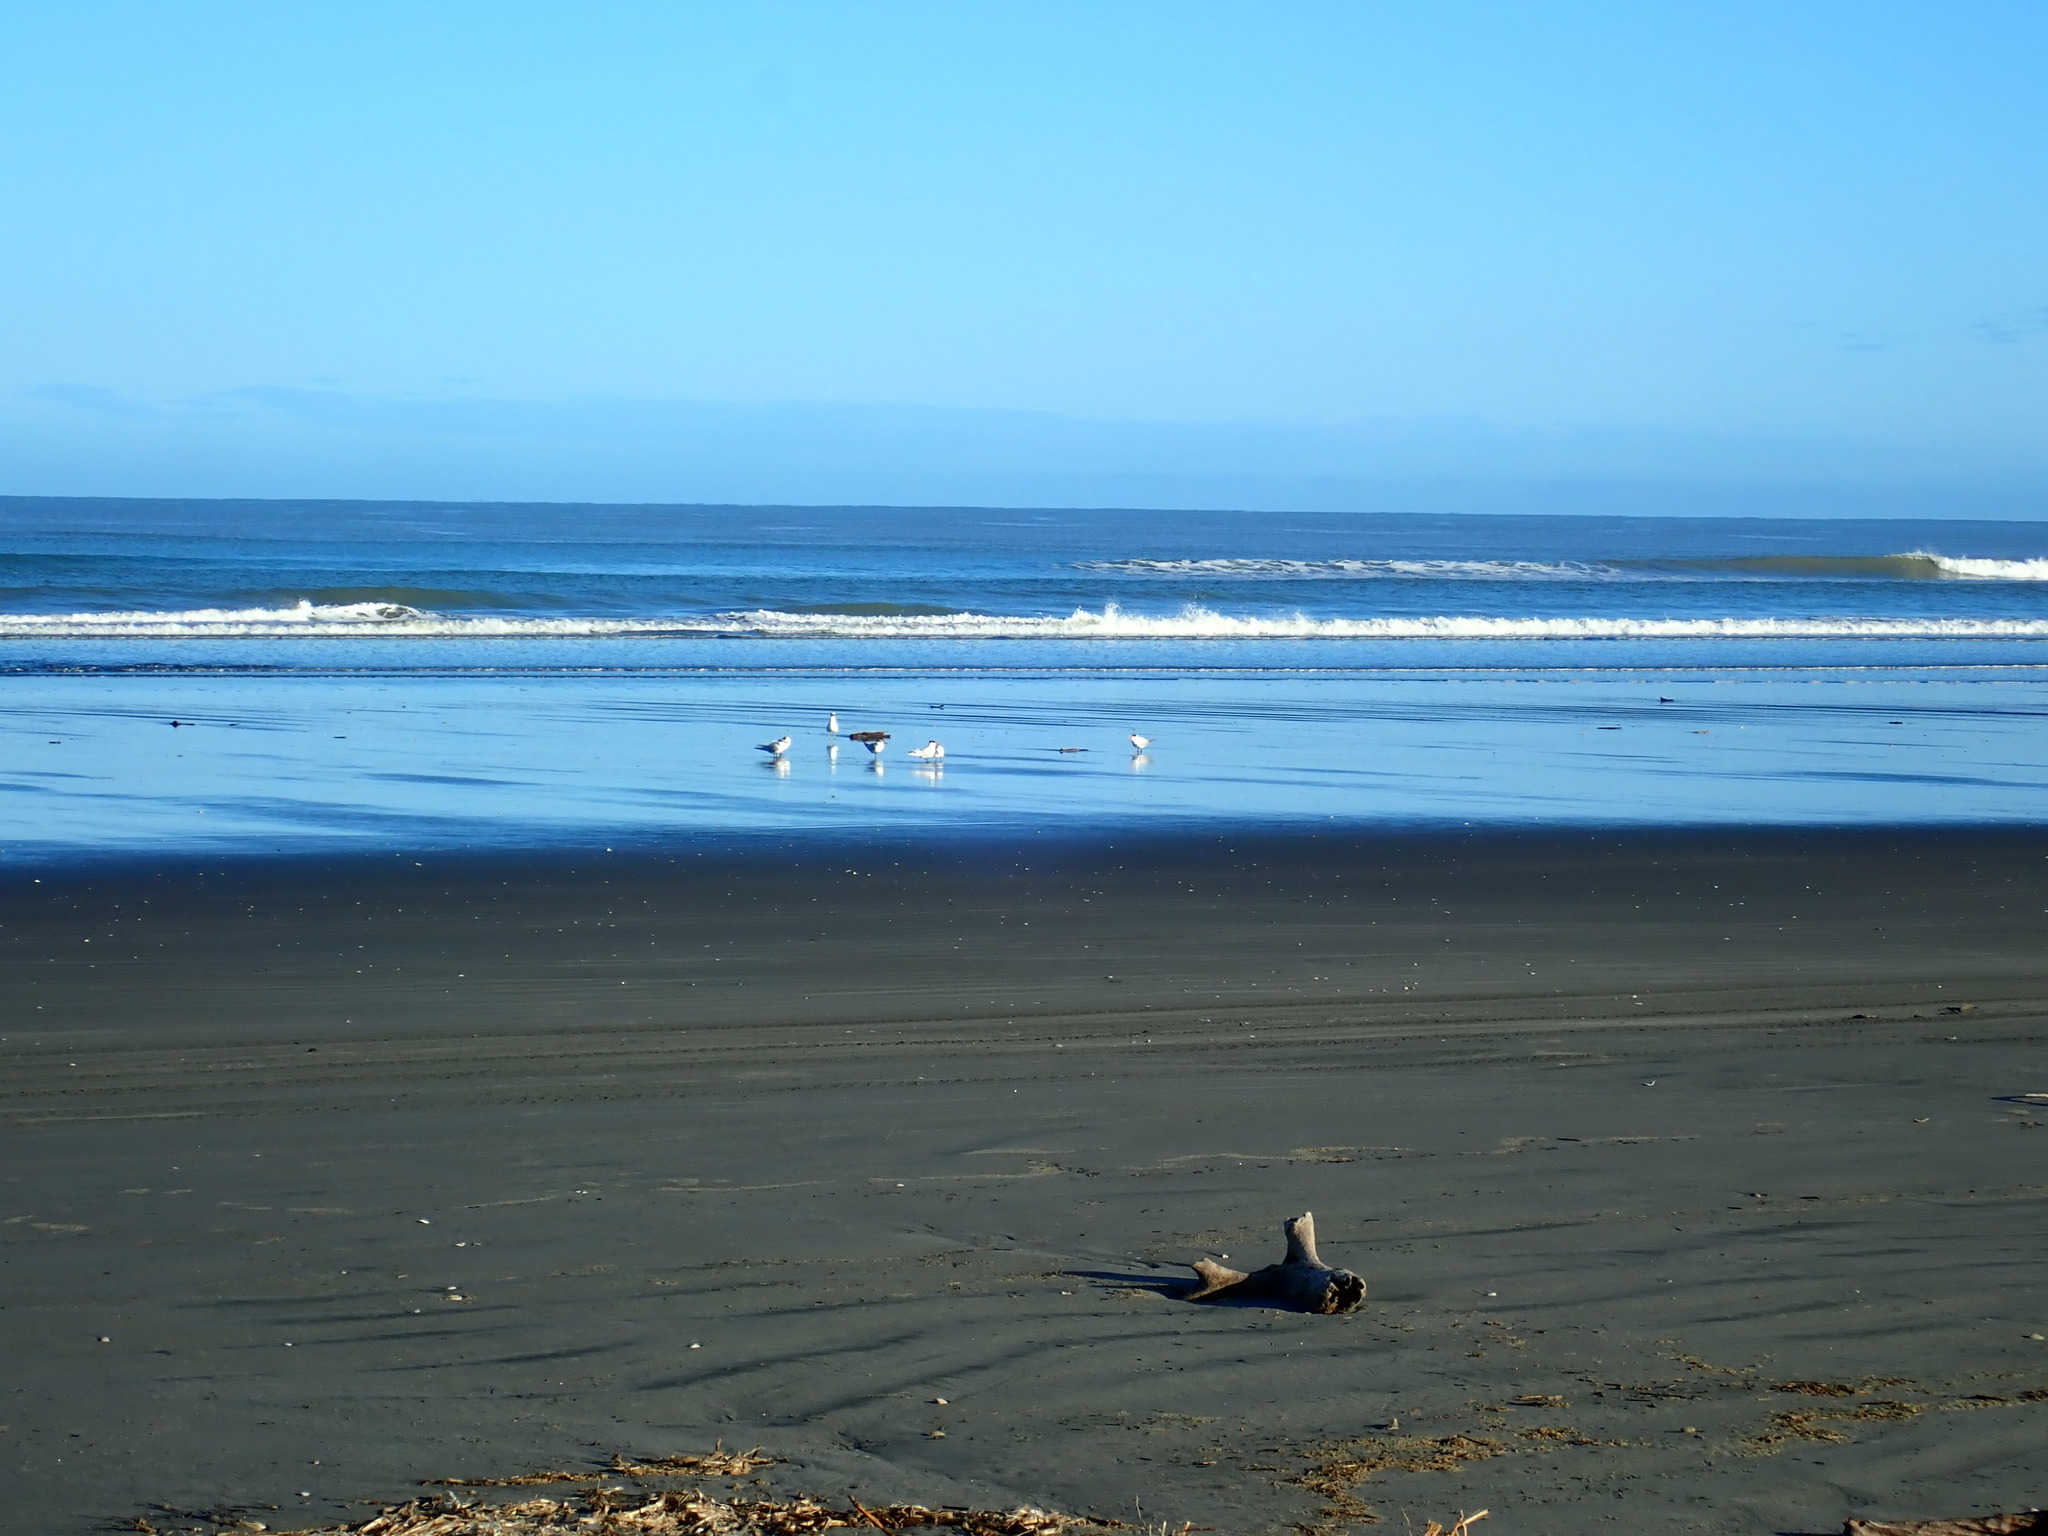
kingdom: Animalia
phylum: Chordata
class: Aves
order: Charadriiformes
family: Laridae
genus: Hydroprogne
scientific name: Hydroprogne caspia
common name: Caspian tern
